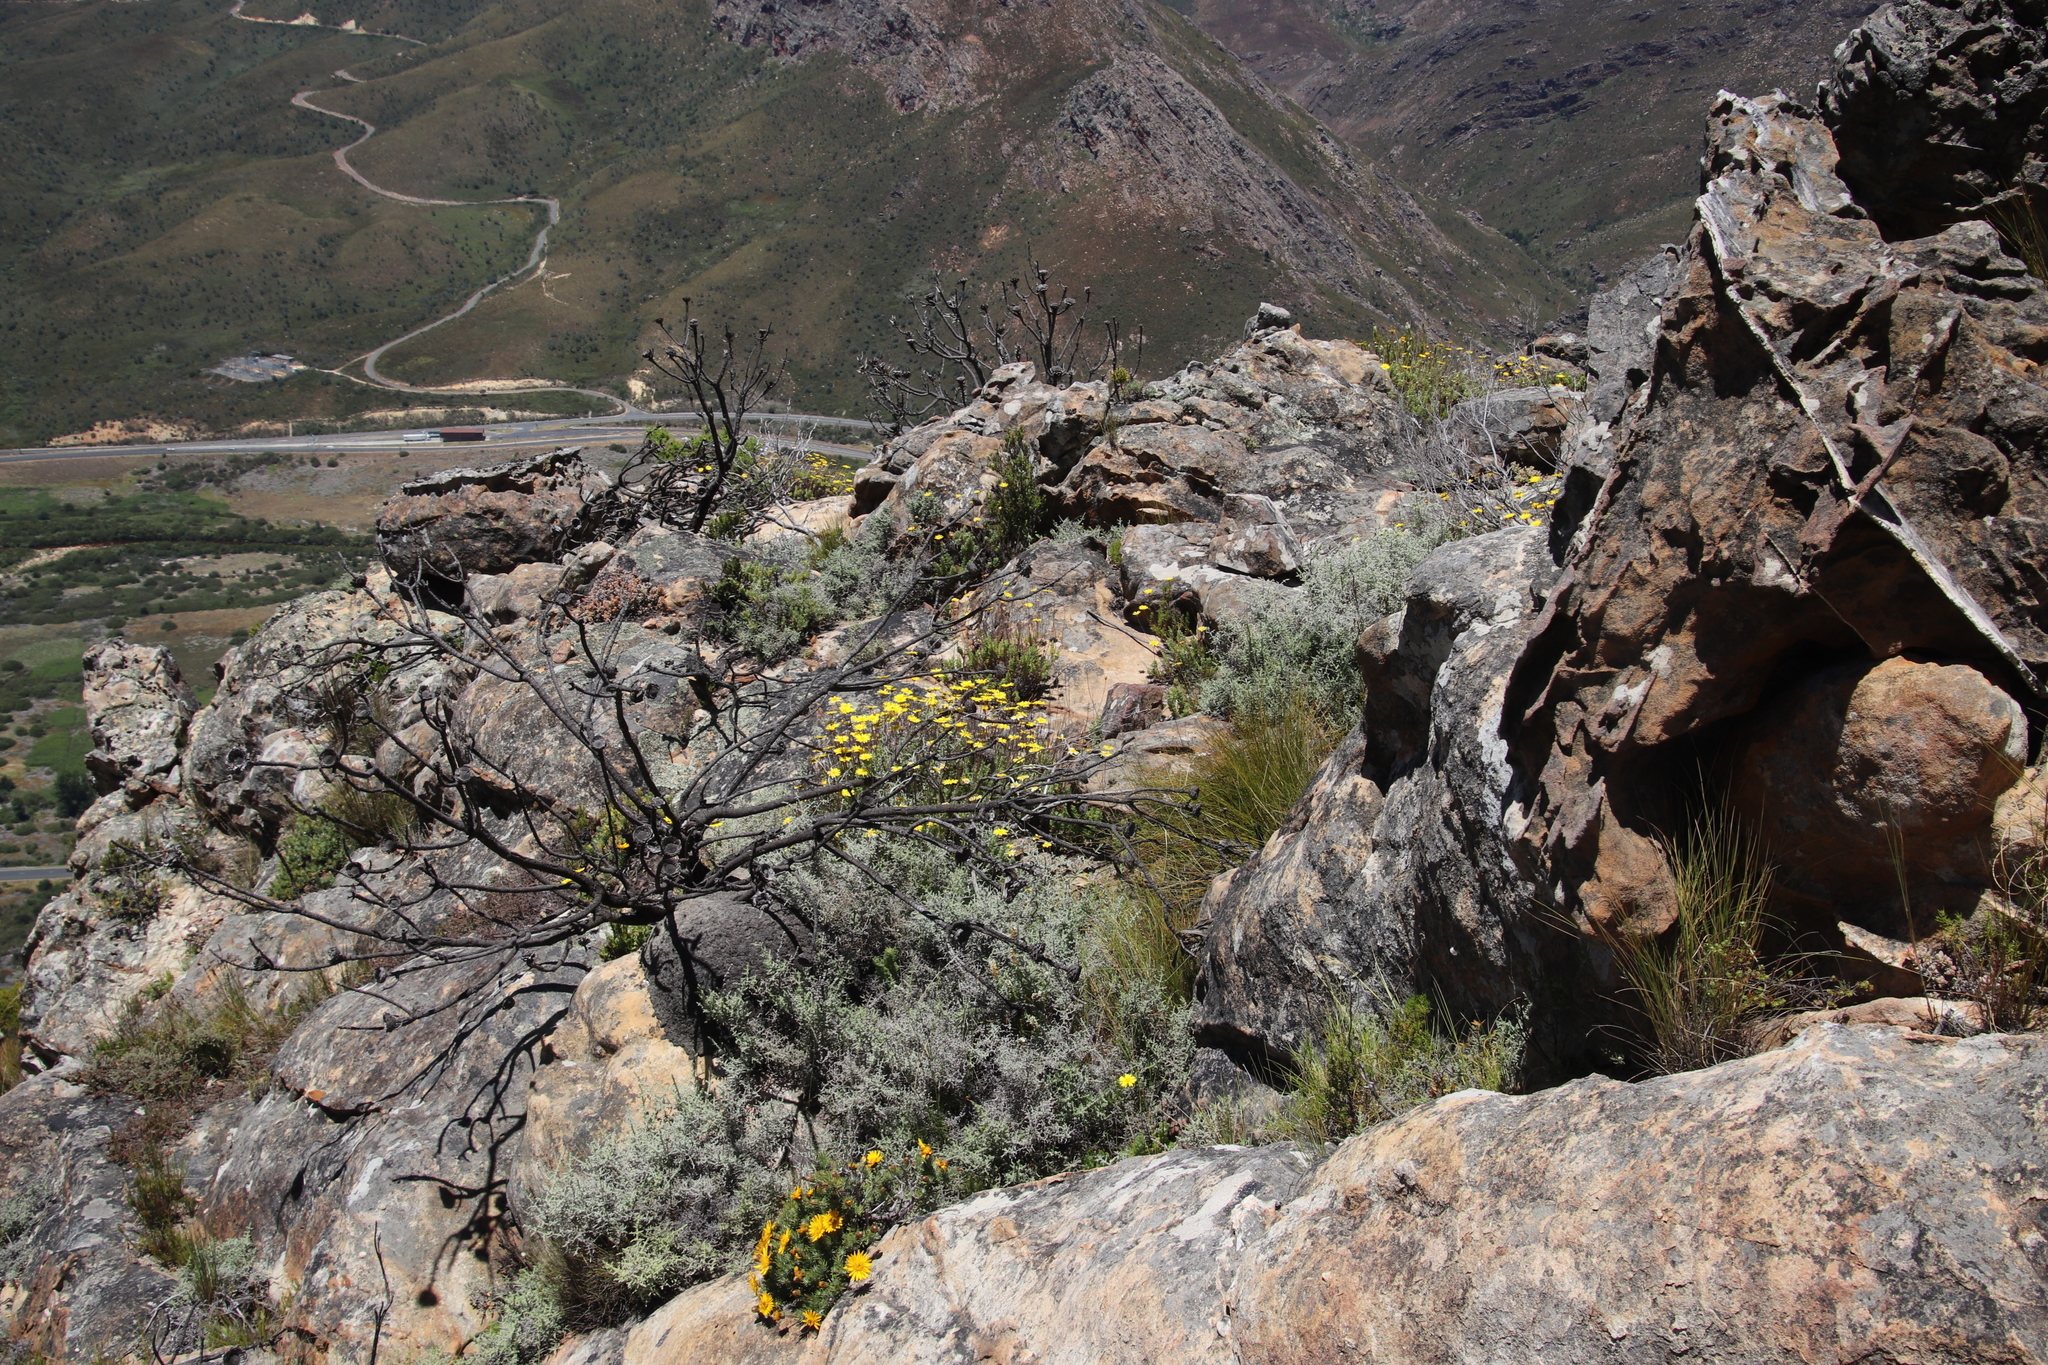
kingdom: Plantae
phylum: Tracheophyta
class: Magnoliopsida
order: Asterales
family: Asteraceae
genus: Heterolepis
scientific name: Heterolepis aliena
